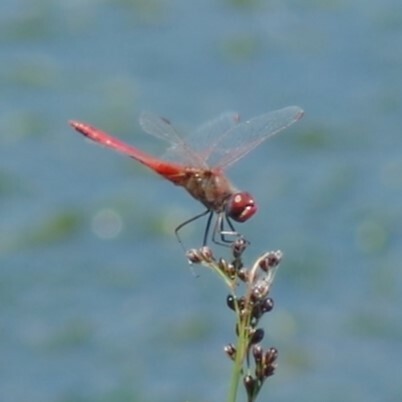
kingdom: Animalia
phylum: Arthropoda
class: Insecta
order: Odonata
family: Libellulidae
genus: Sympetrum
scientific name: Sympetrum fonscolombii
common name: Red-veined darter
